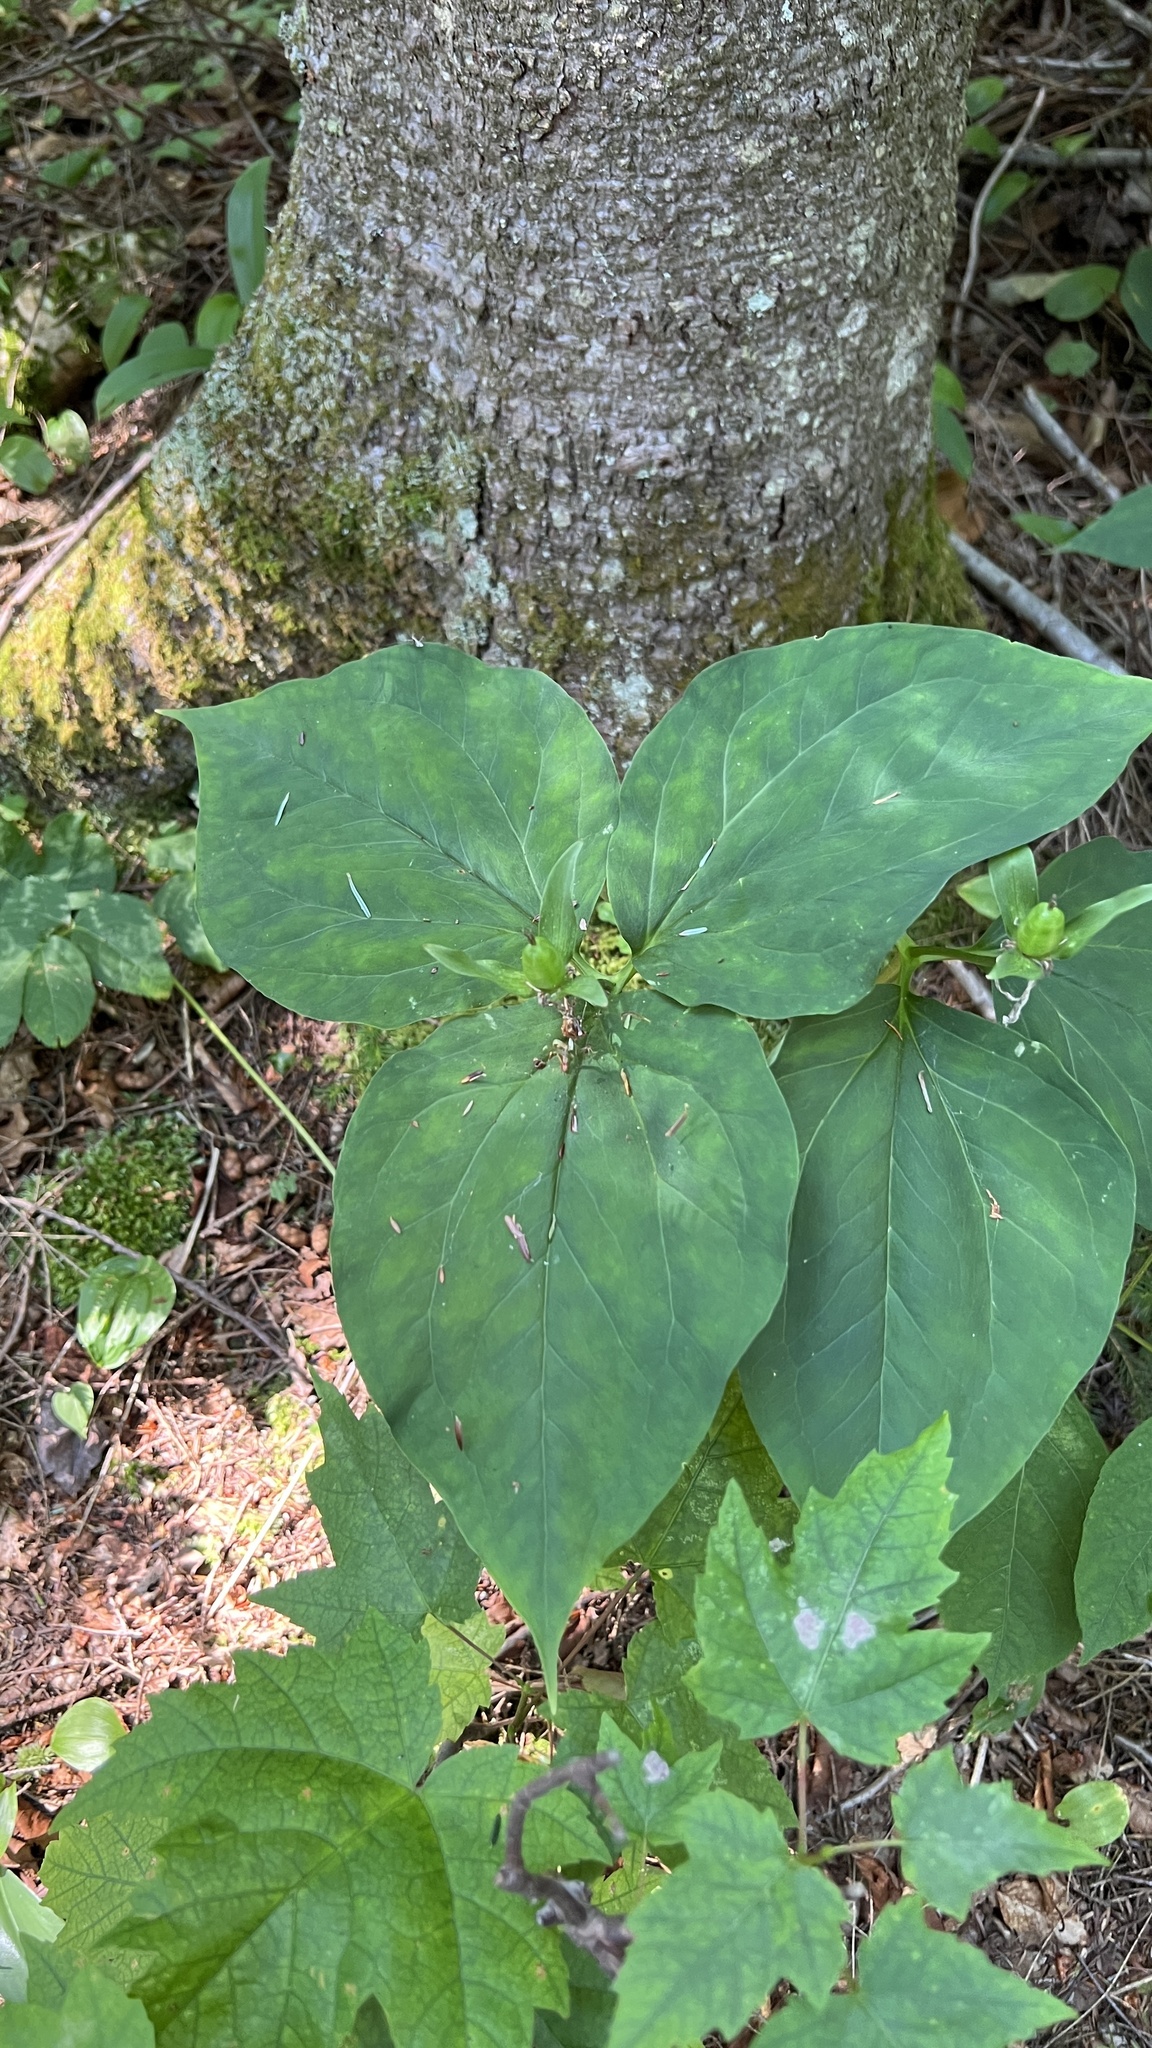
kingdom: Plantae
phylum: Tracheophyta
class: Liliopsida
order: Liliales
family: Melanthiaceae
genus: Trillium
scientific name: Trillium undulatum
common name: Paint trillium
